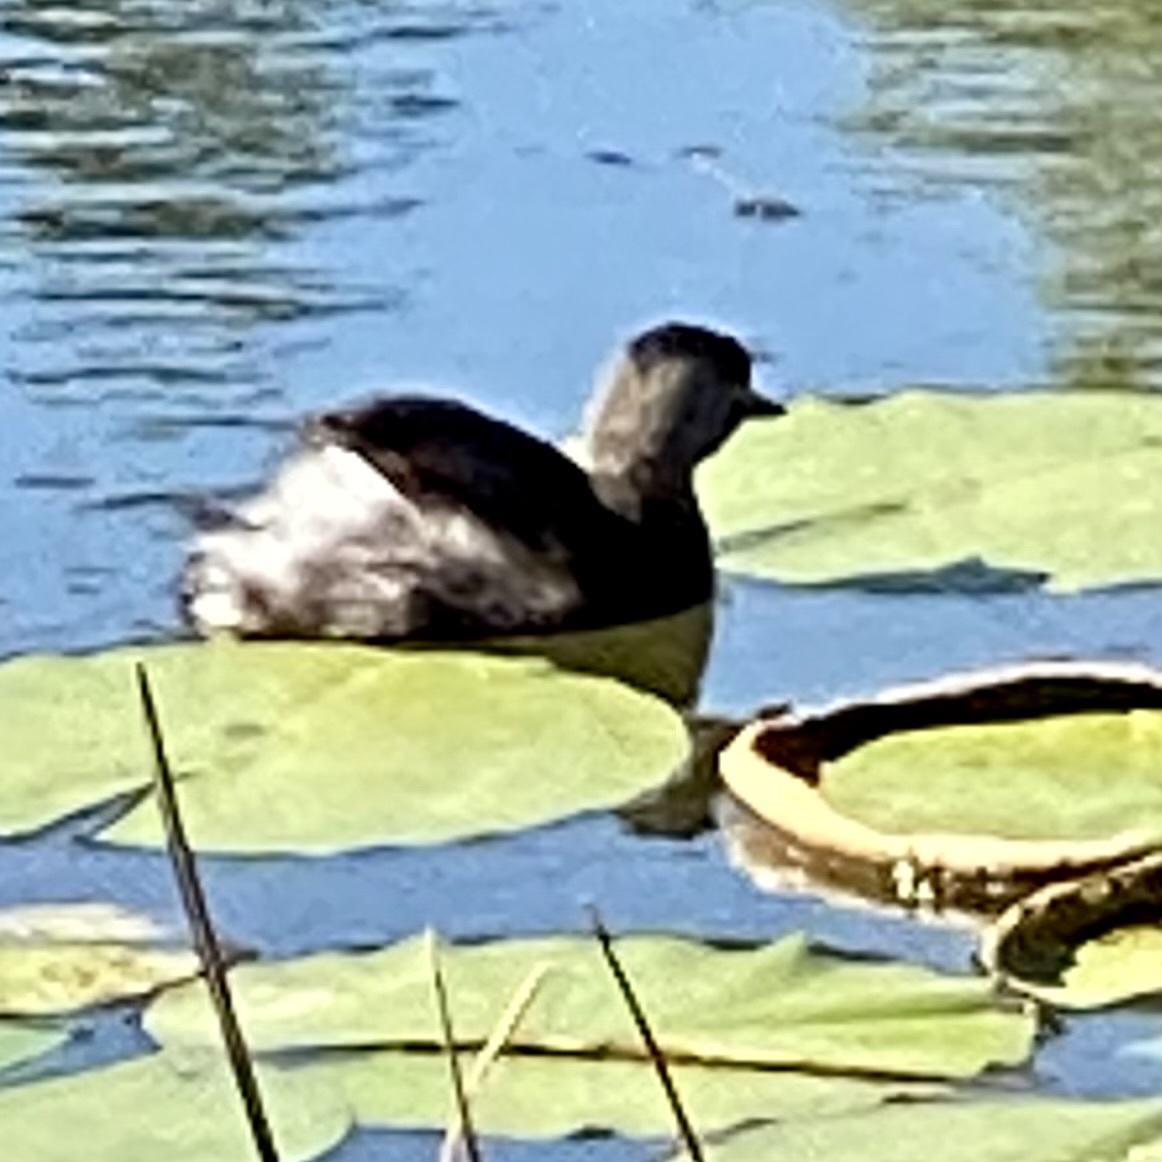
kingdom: Animalia
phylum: Chordata
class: Aves
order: Podicipediformes
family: Podicipedidae
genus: Tachybaptus
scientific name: Tachybaptus dominicus
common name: Least grebe
